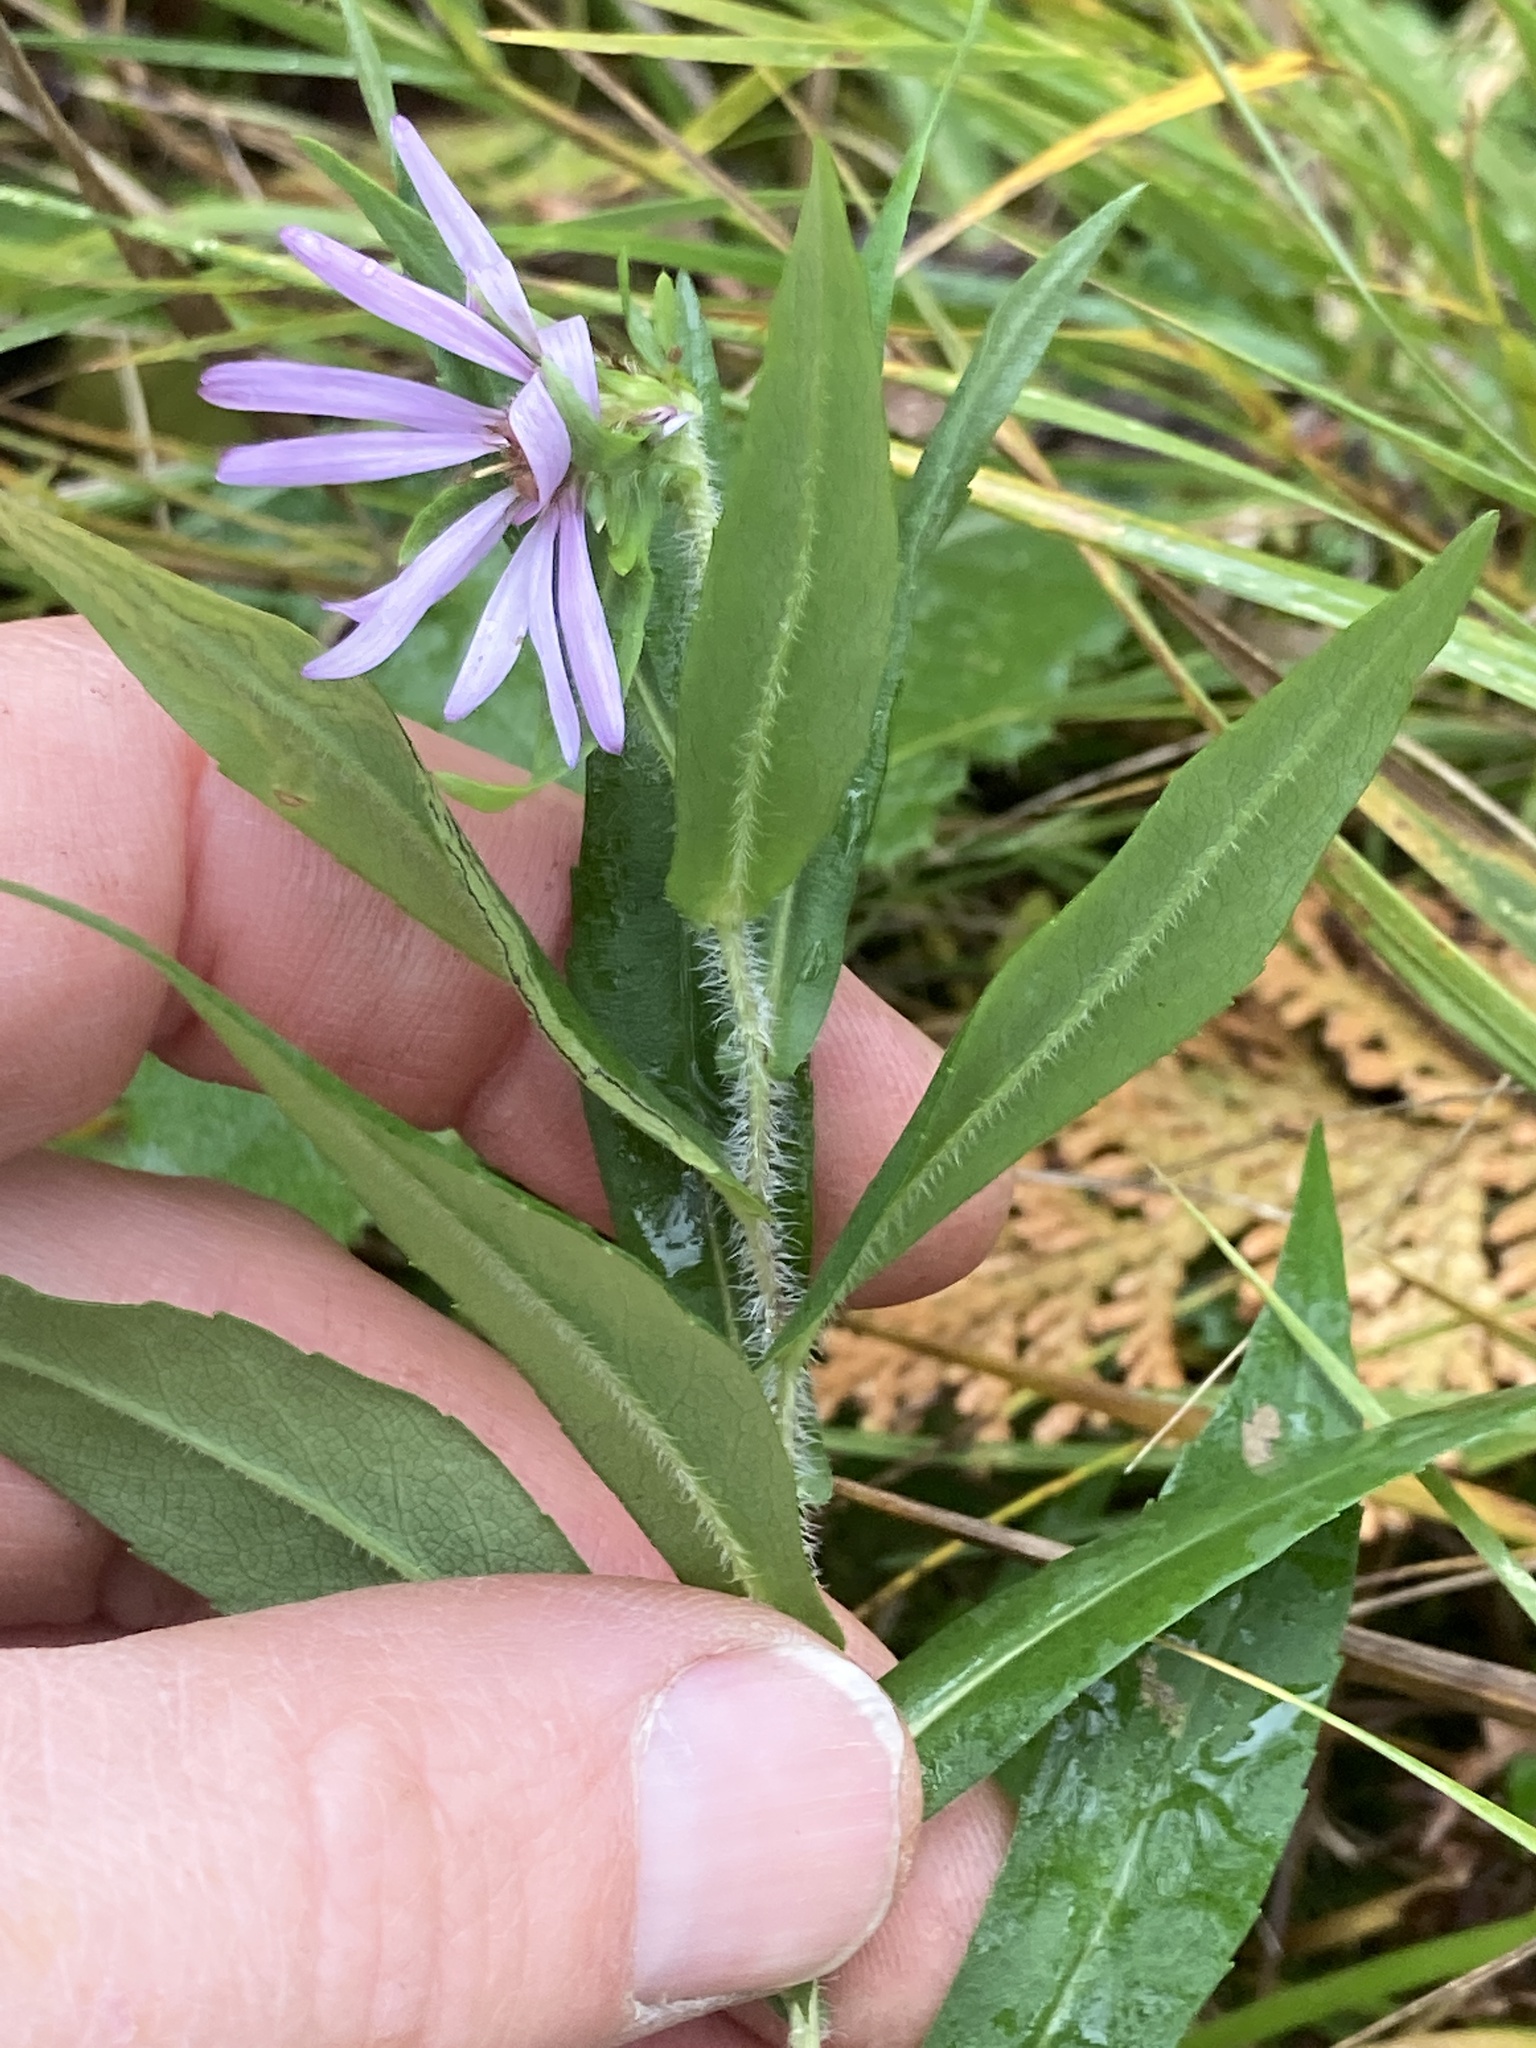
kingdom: Plantae
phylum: Tracheophyta
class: Magnoliopsida
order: Asterales
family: Asteraceae
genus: Symphyotrichum
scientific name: Symphyotrichum puniceum
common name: Bog aster
